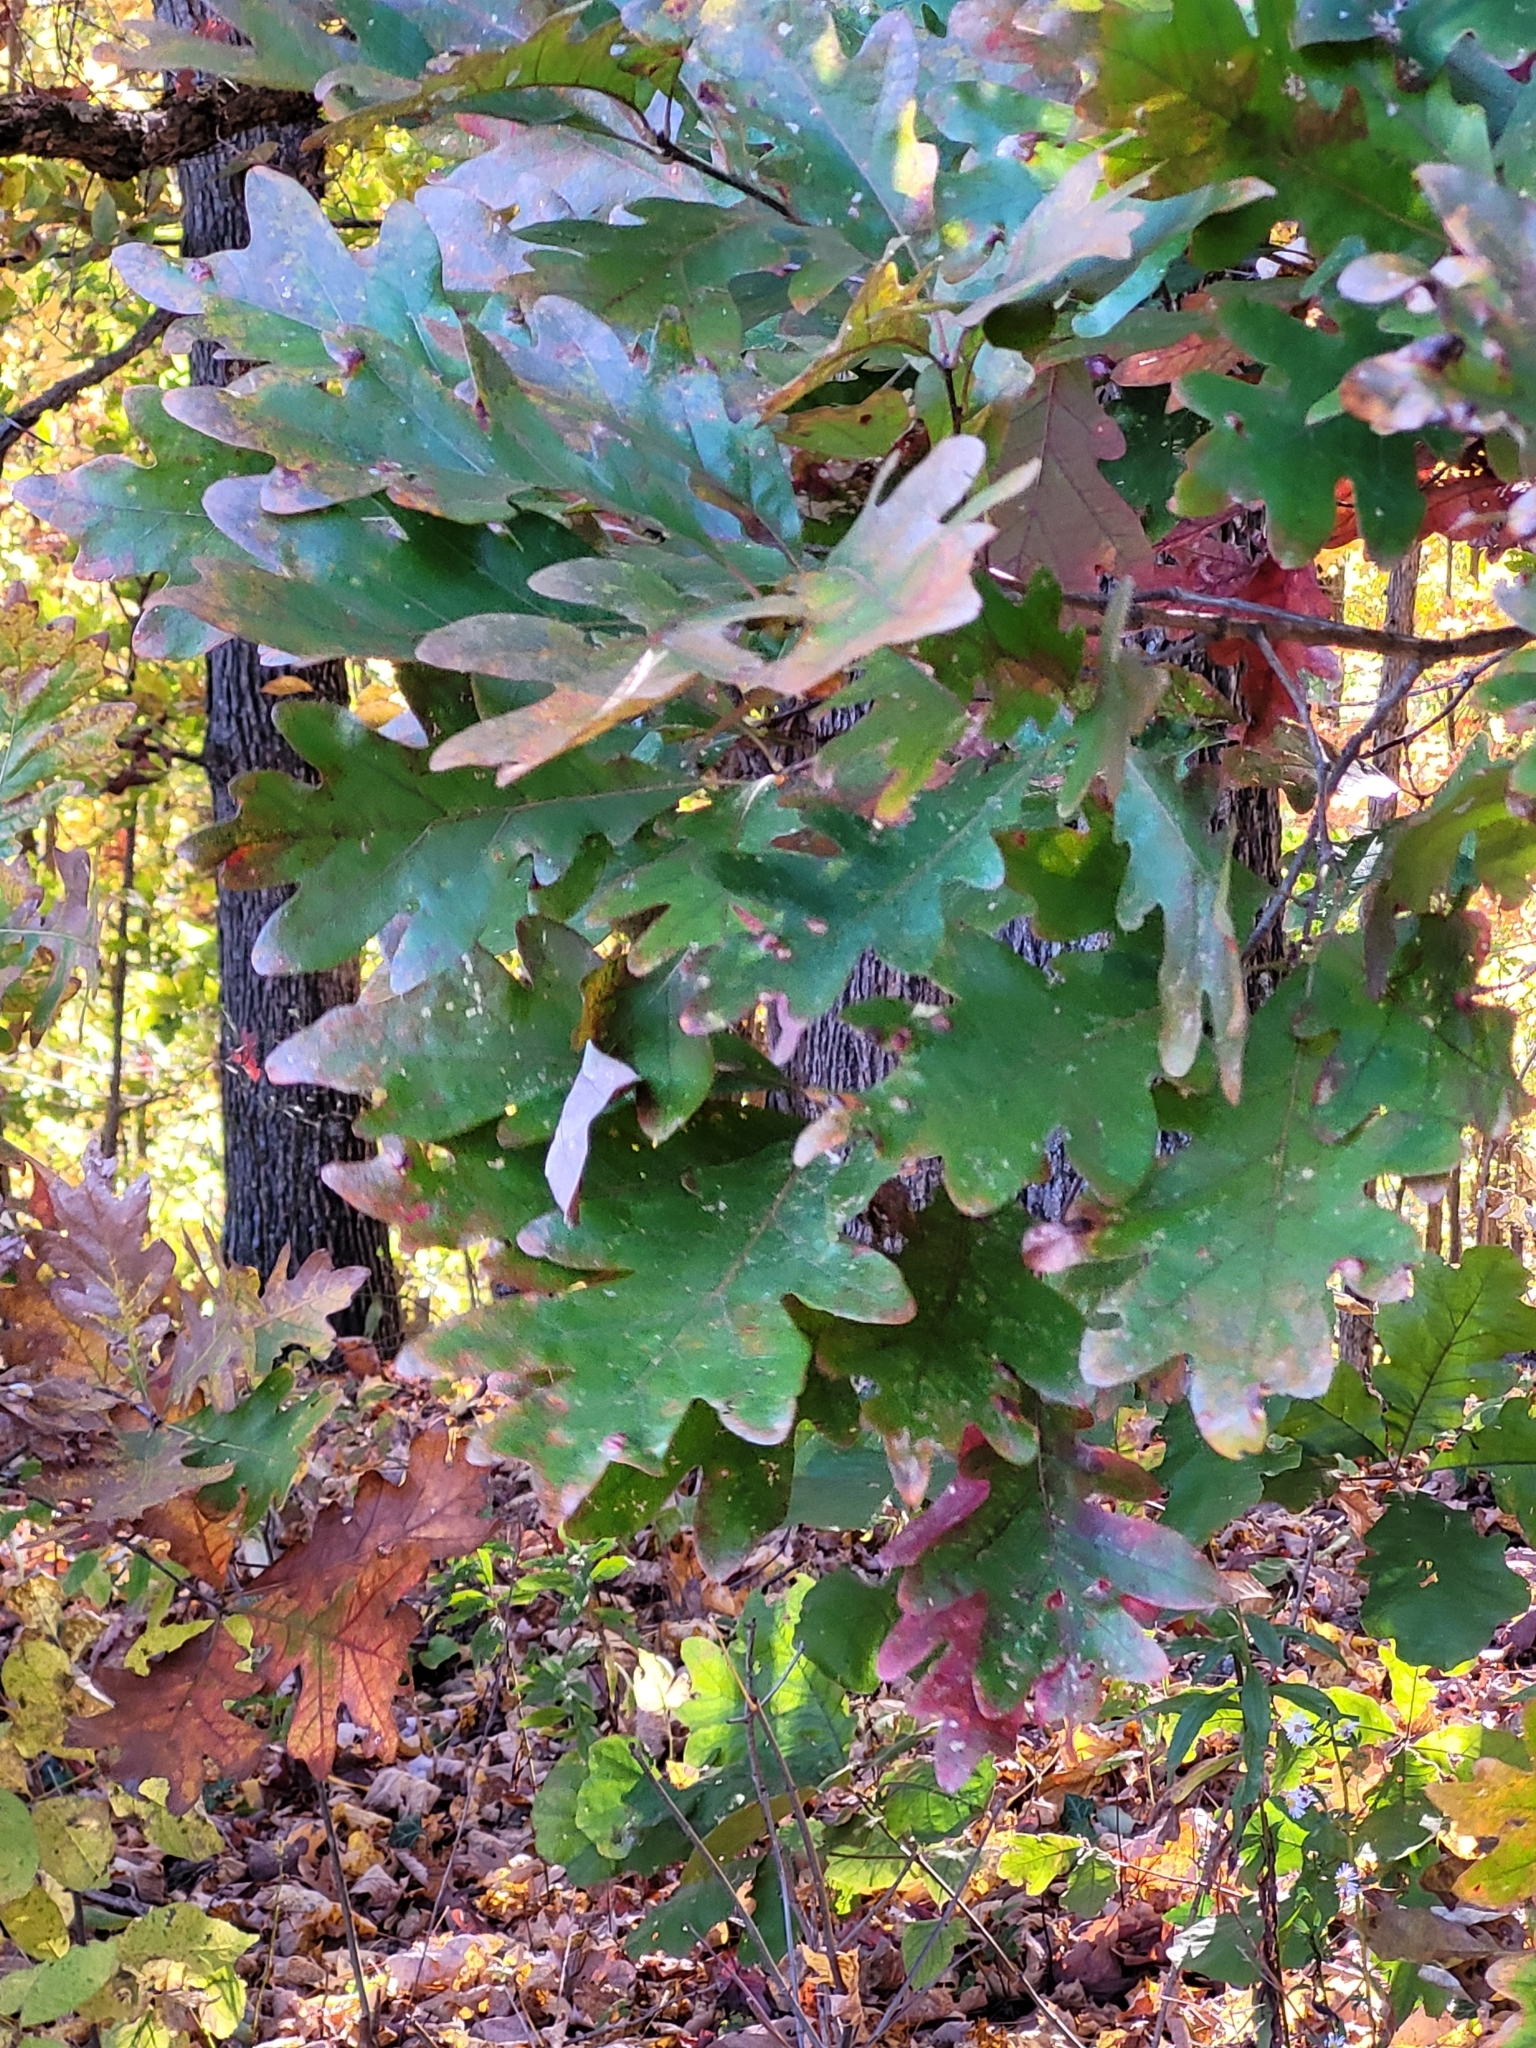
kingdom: Plantae
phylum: Tracheophyta
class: Magnoliopsida
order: Fagales
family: Fagaceae
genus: Quercus
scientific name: Quercus alba
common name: White oak
